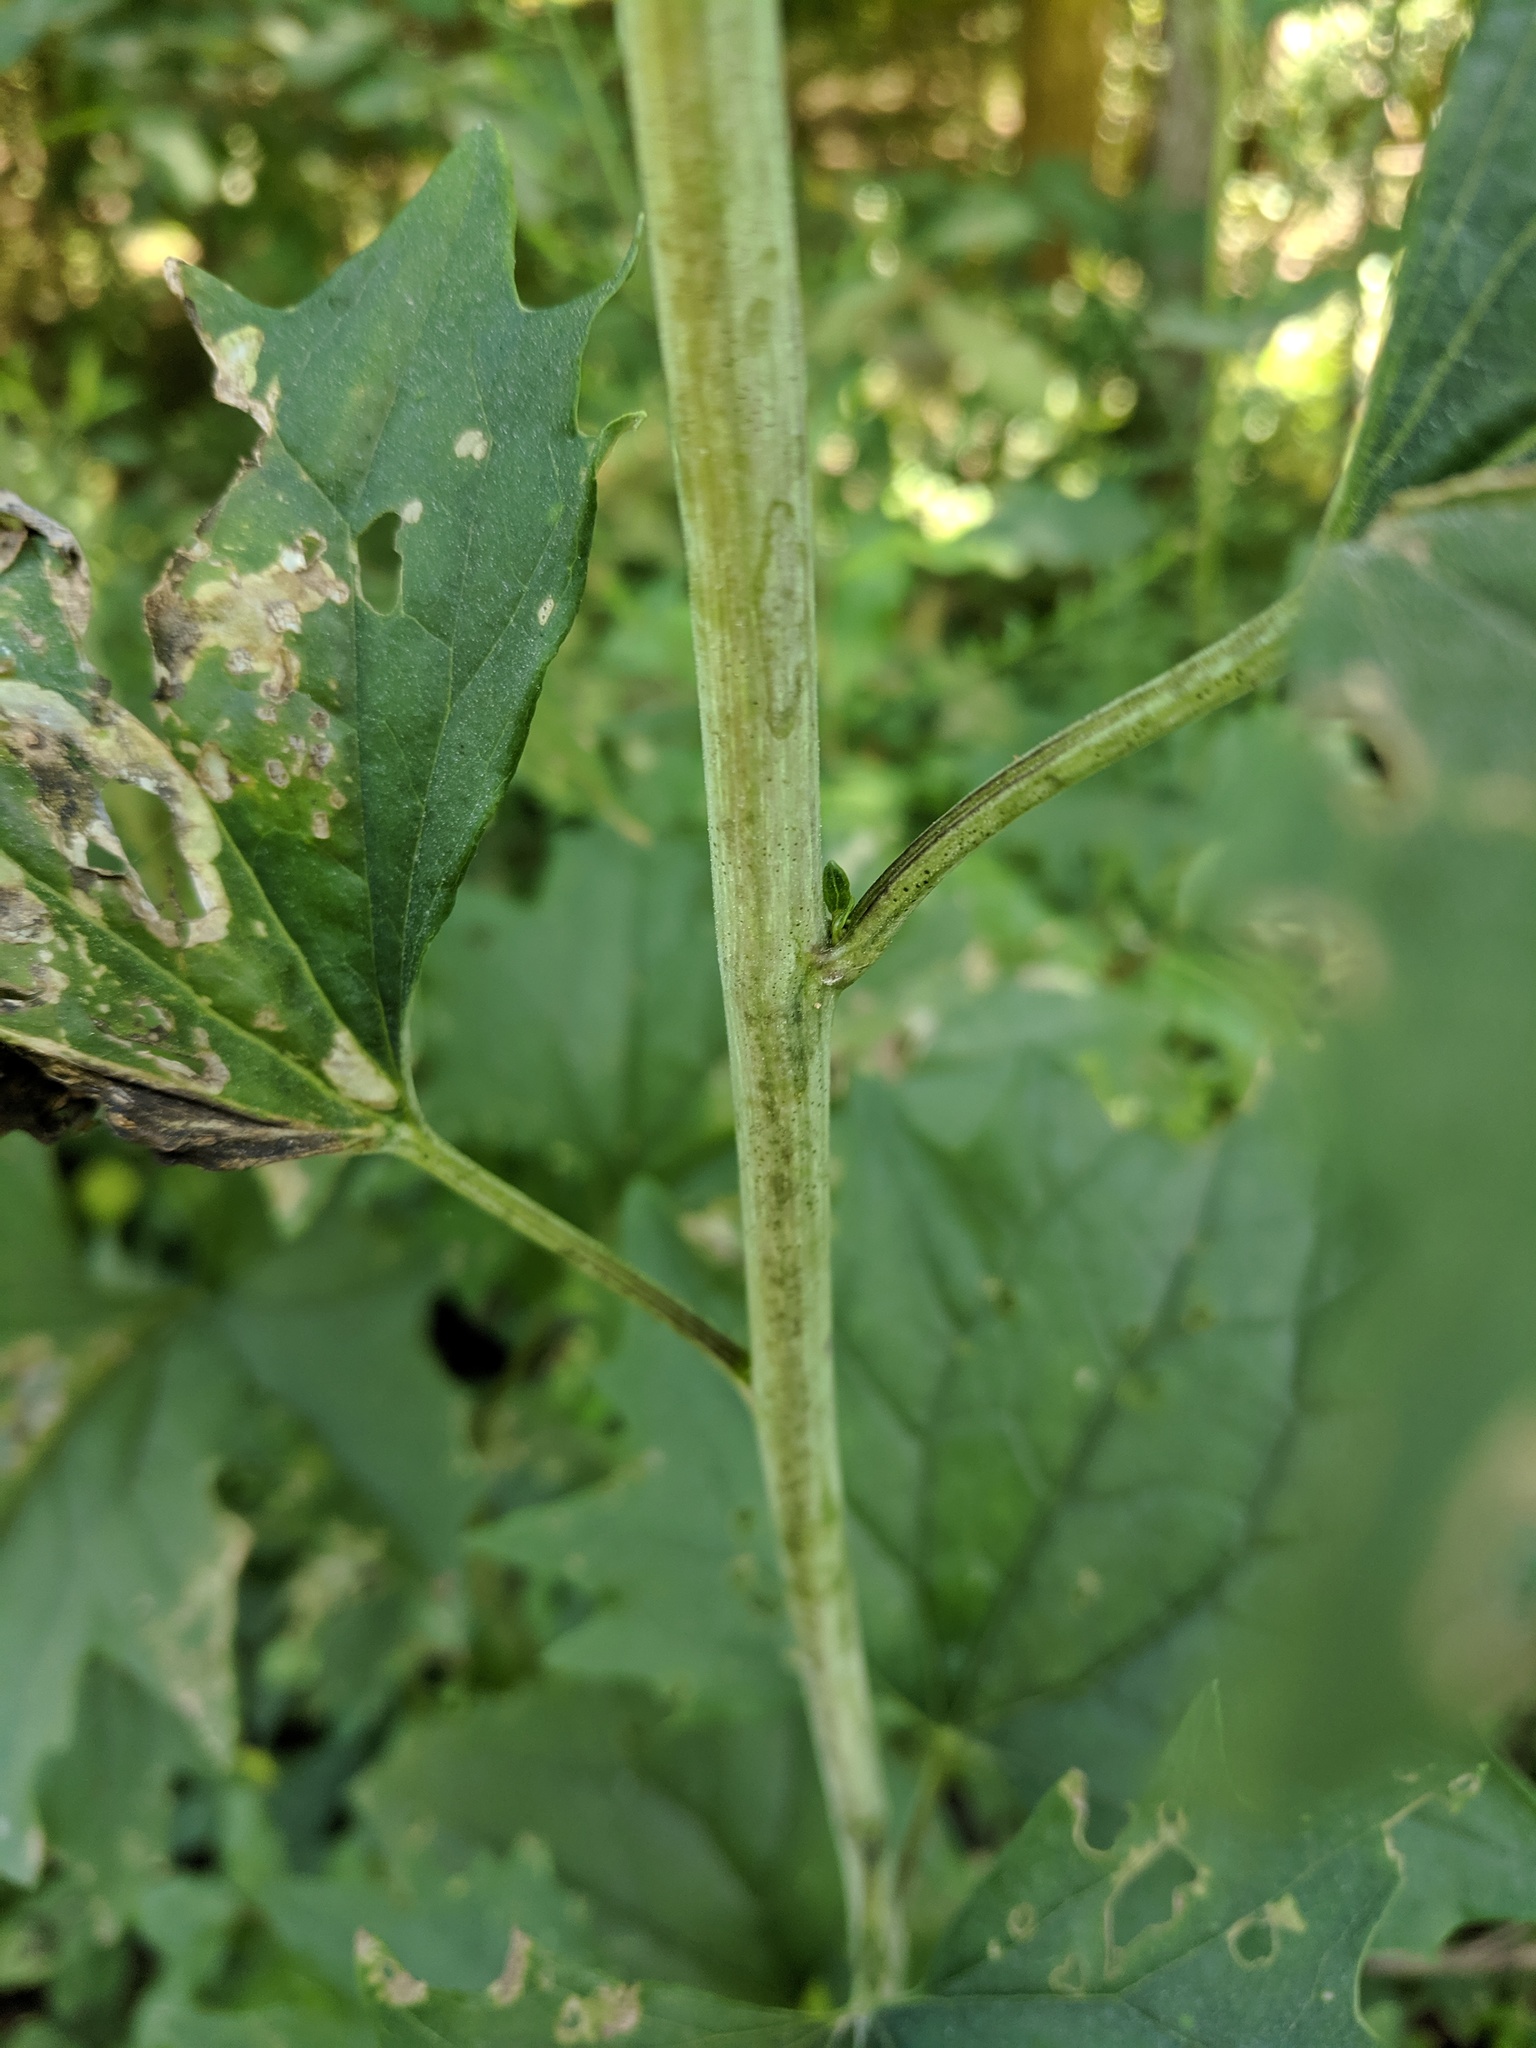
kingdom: Plantae
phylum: Tracheophyta
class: Magnoliopsida
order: Asterales
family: Asteraceae
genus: Arnoglossum
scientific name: Arnoglossum atriplicifolium
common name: Pale indian-plantain
